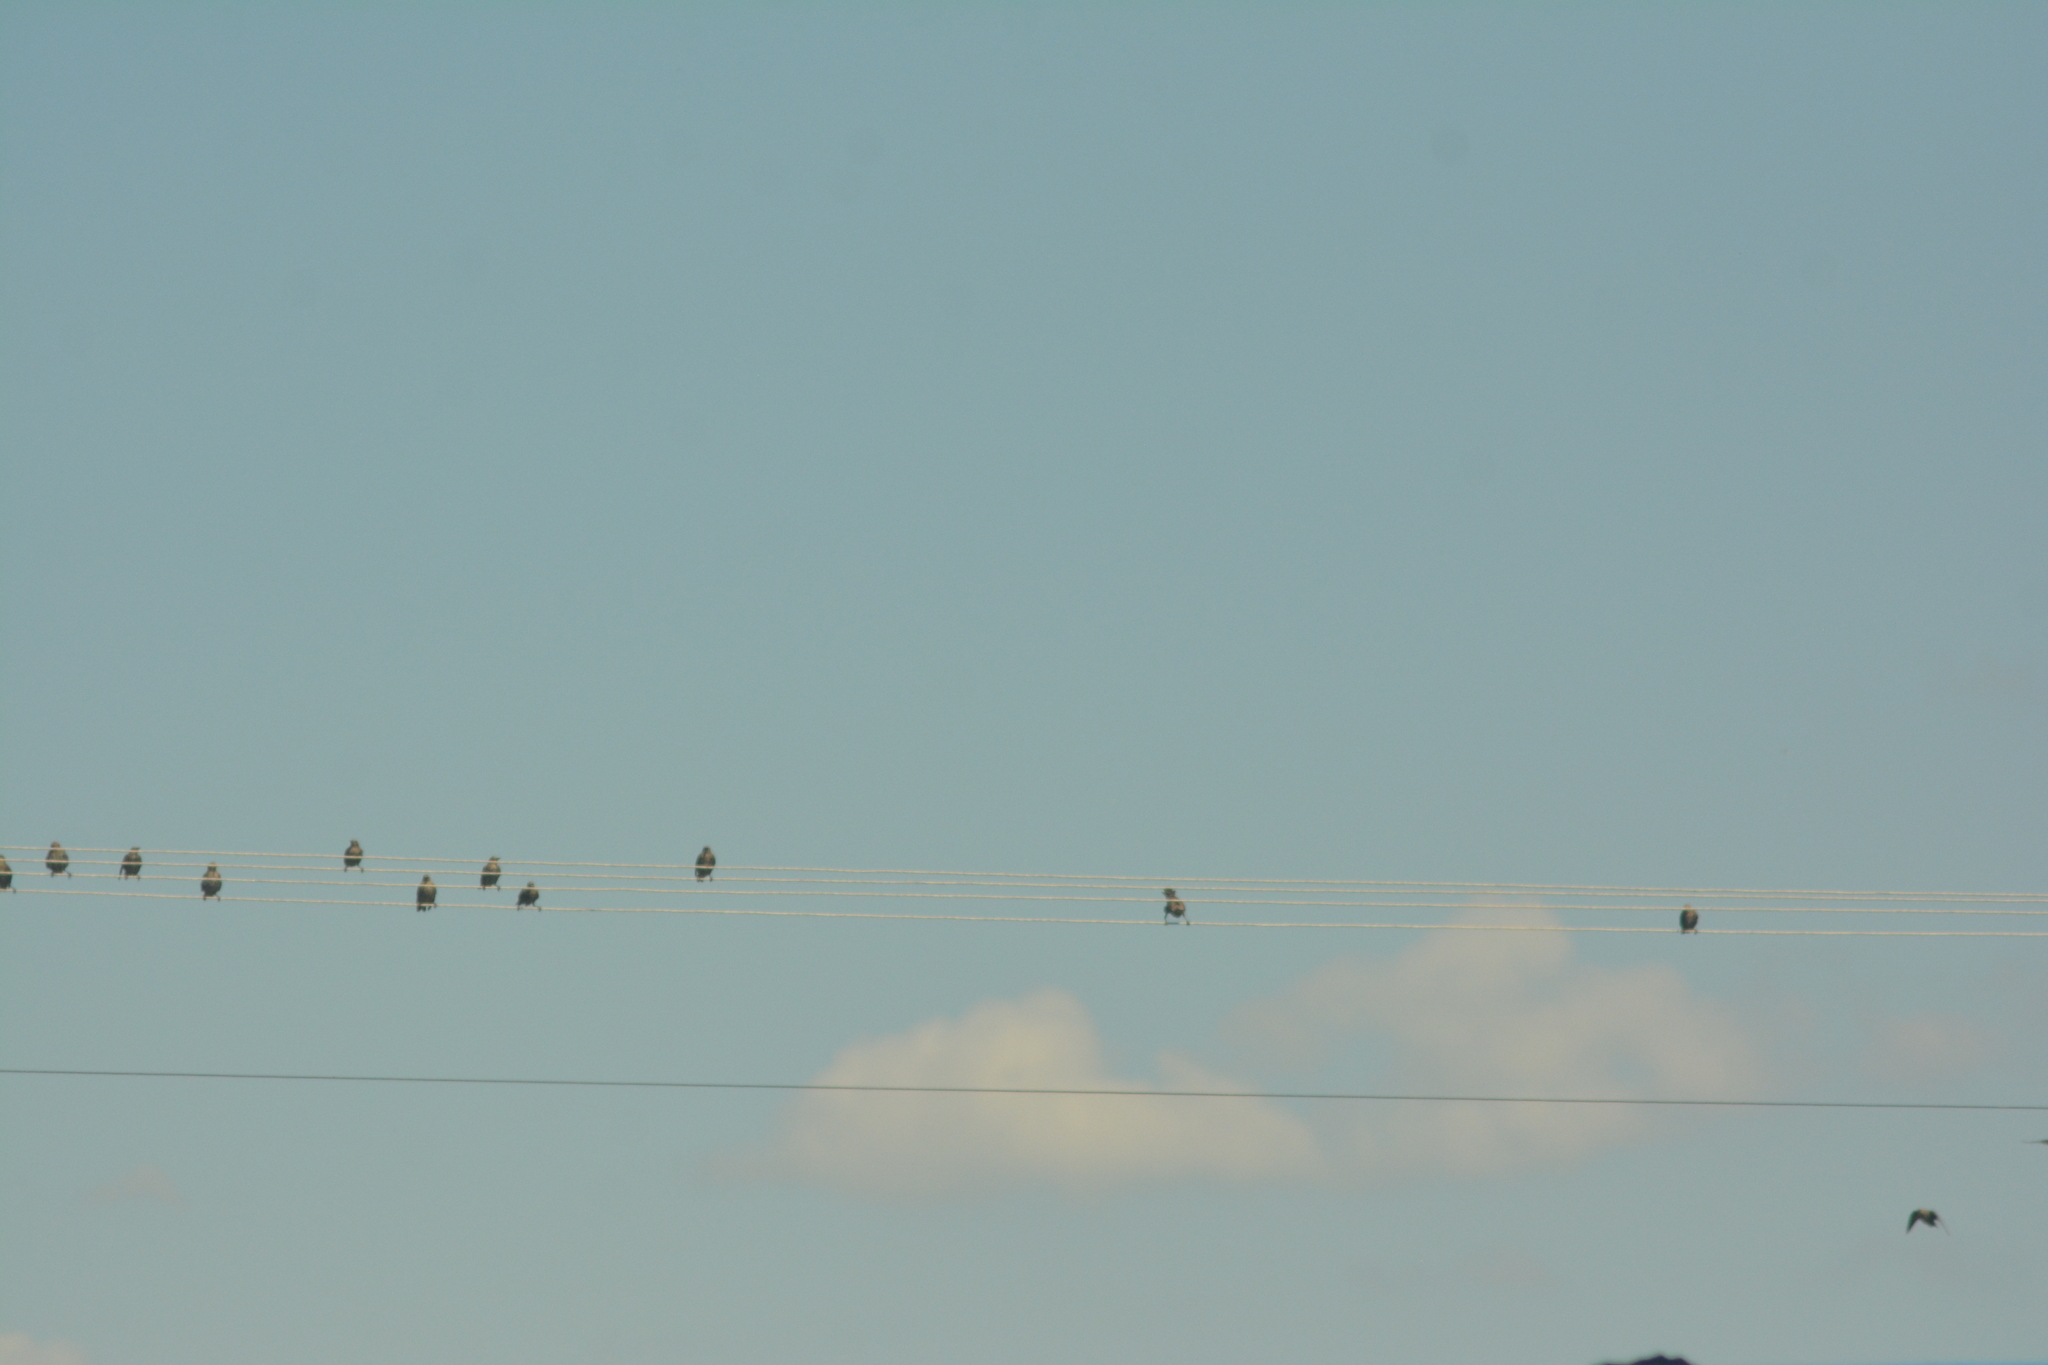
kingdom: Animalia
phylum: Chordata
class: Aves
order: Passeriformes
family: Sturnidae
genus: Sturnus
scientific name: Sturnus vulgaris
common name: Common starling
